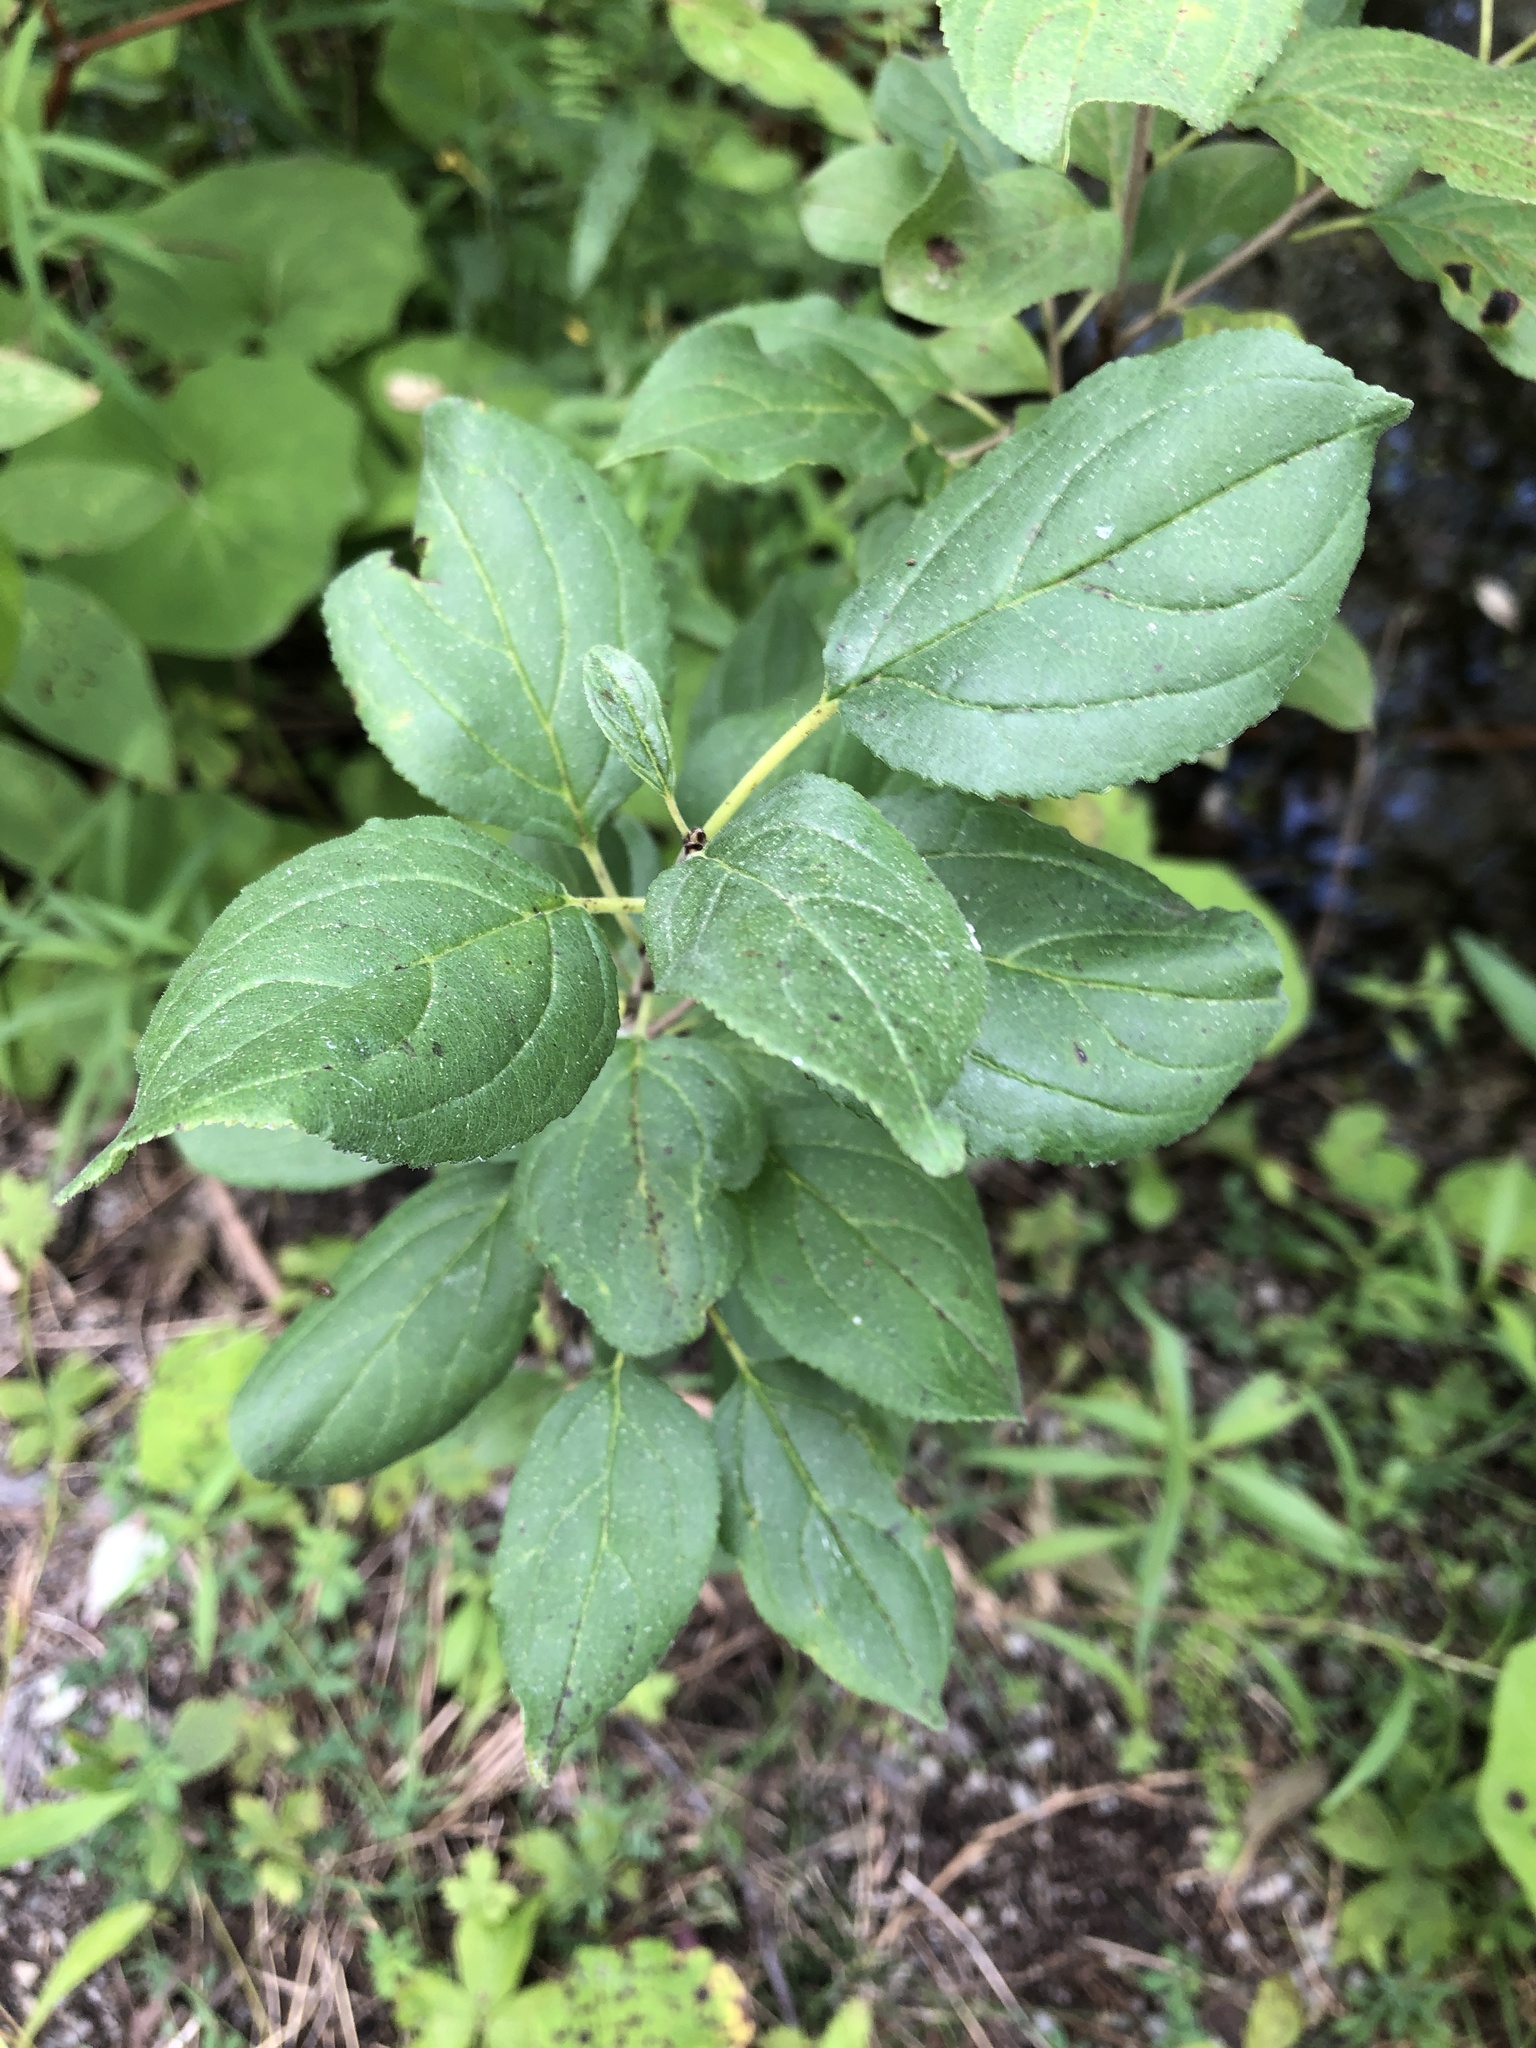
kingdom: Plantae
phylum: Tracheophyta
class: Magnoliopsida
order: Rosales
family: Rhamnaceae
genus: Rhamnus
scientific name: Rhamnus cathartica
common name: Common buckthorn
